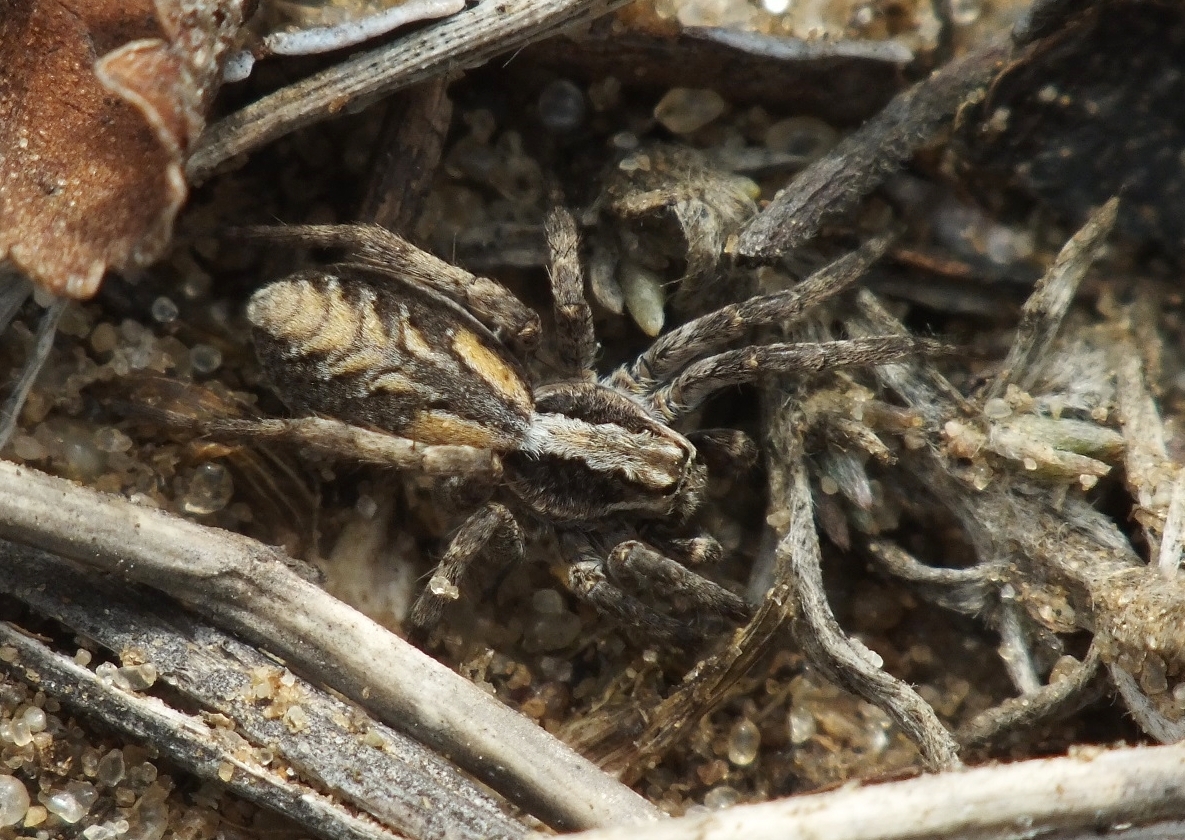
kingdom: Animalia
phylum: Arthropoda
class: Arachnida
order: Araneae
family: Lycosidae
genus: Alopecosa
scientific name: Alopecosa cursor
